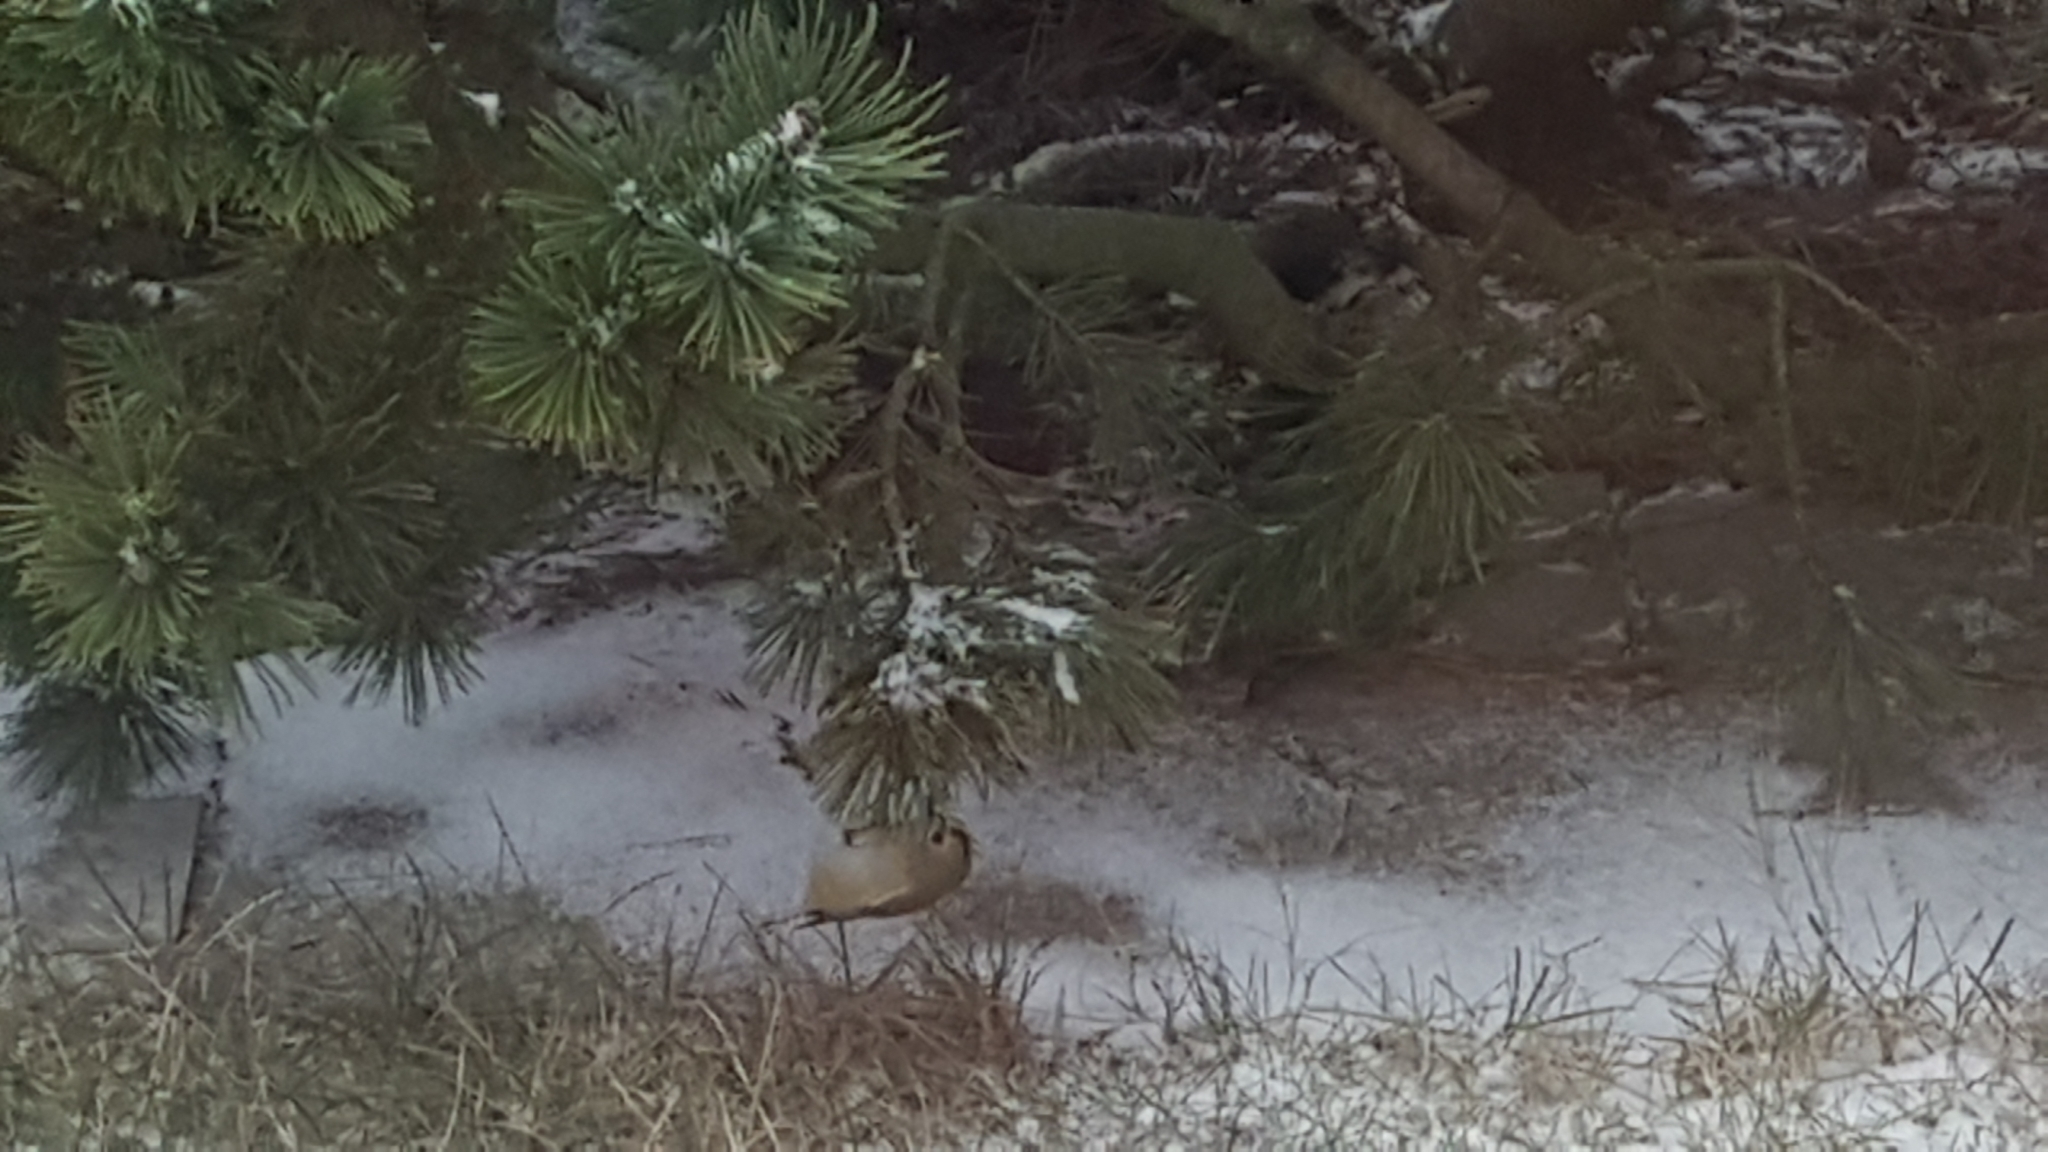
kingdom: Animalia
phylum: Chordata
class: Aves
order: Passeriformes
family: Regulidae
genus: Regulus
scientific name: Regulus regulus
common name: Goldcrest
